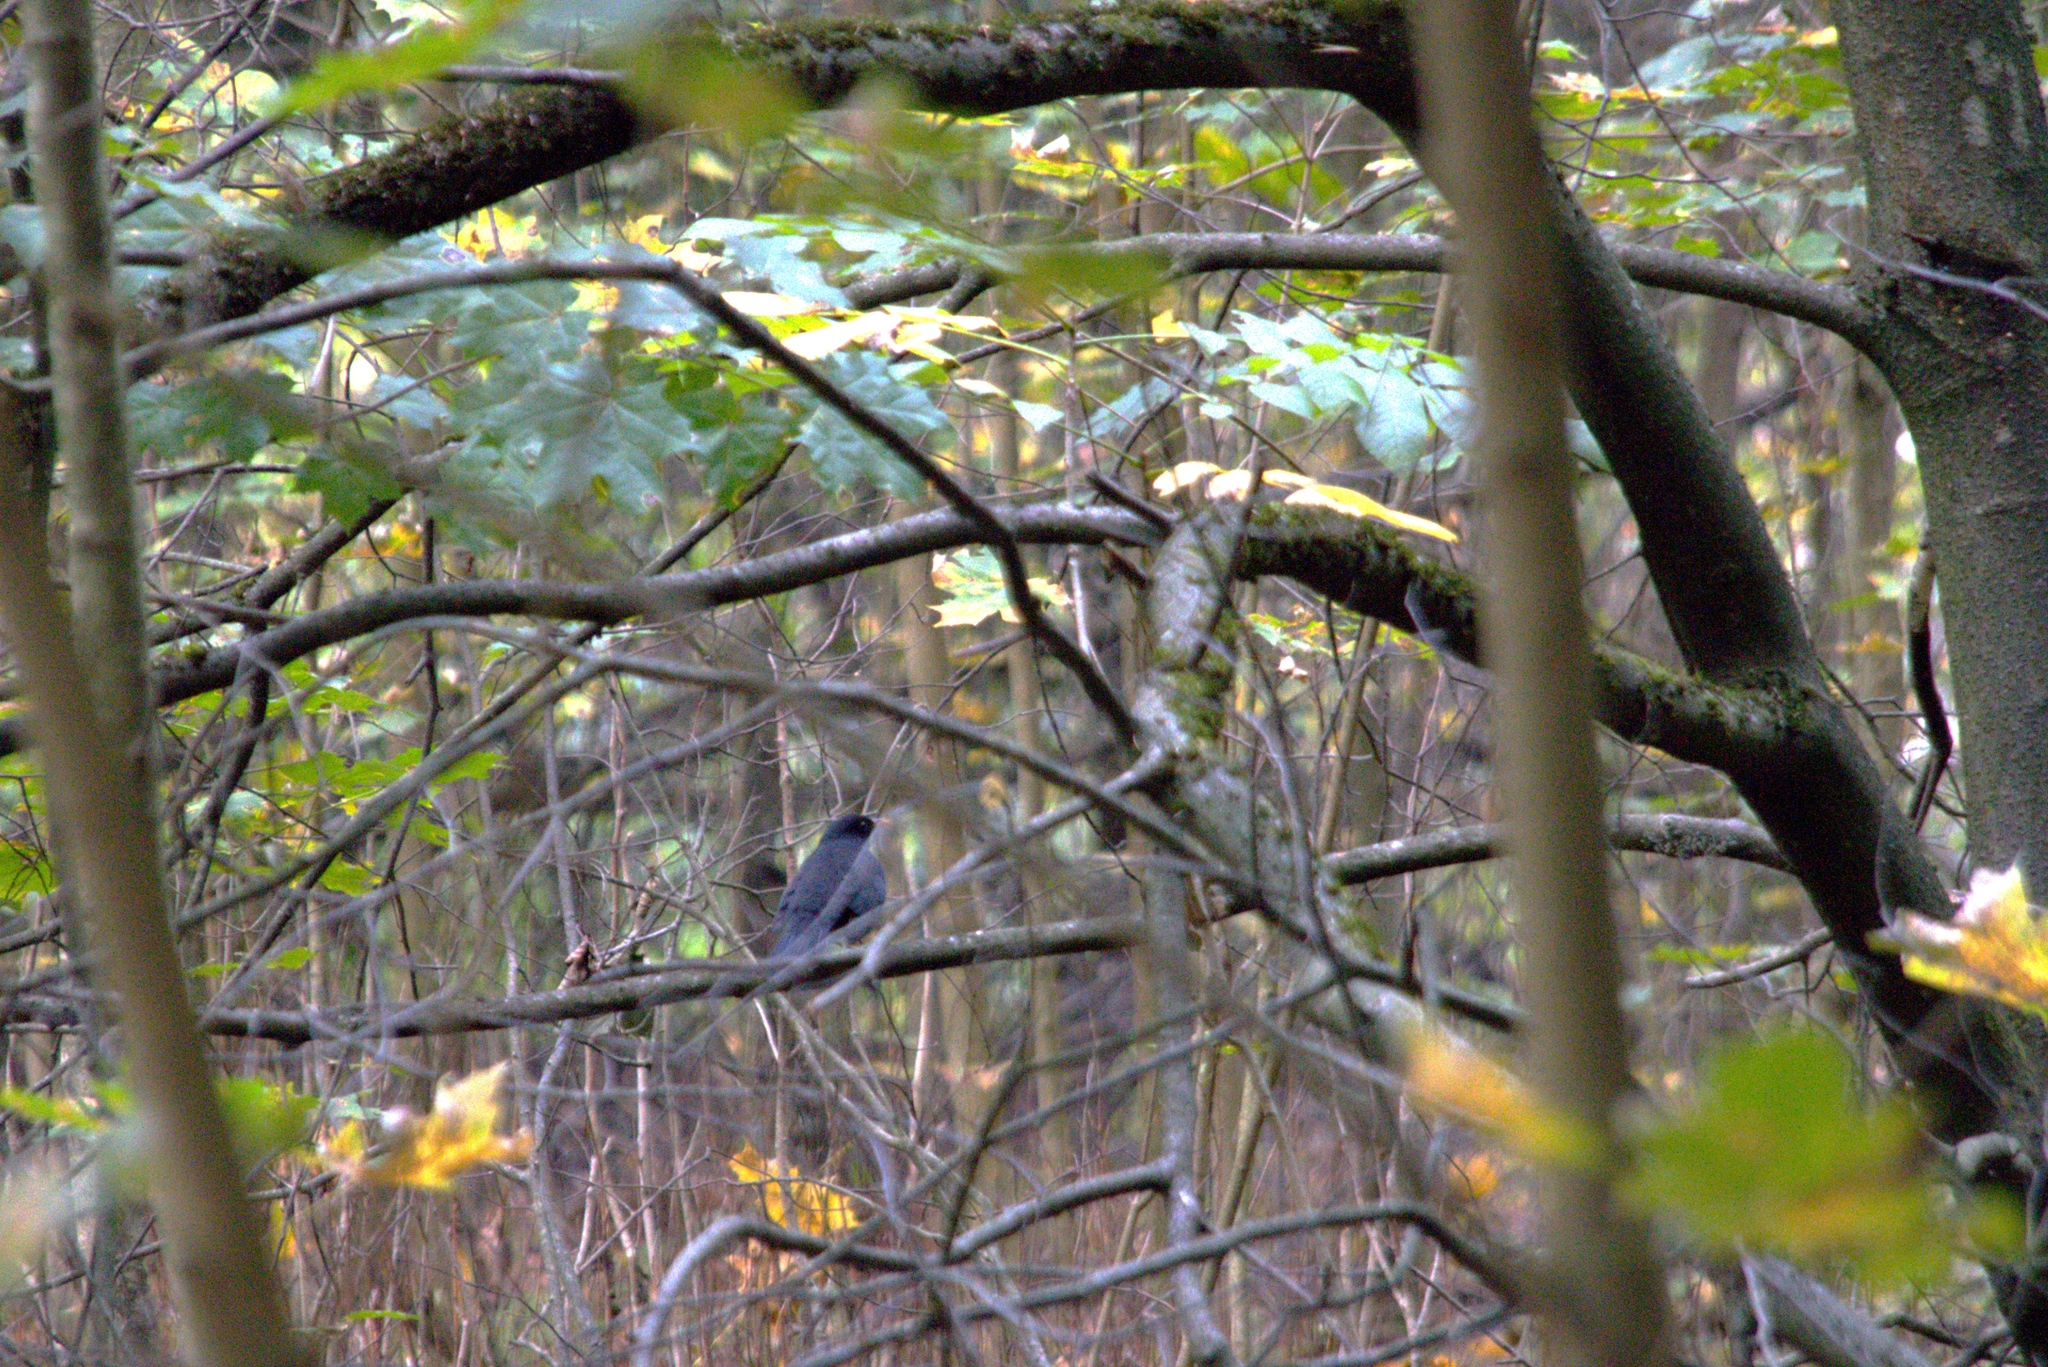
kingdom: Animalia
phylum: Chordata
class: Aves
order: Passeriformes
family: Turdidae
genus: Turdus
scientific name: Turdus merula
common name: Common blackbird
